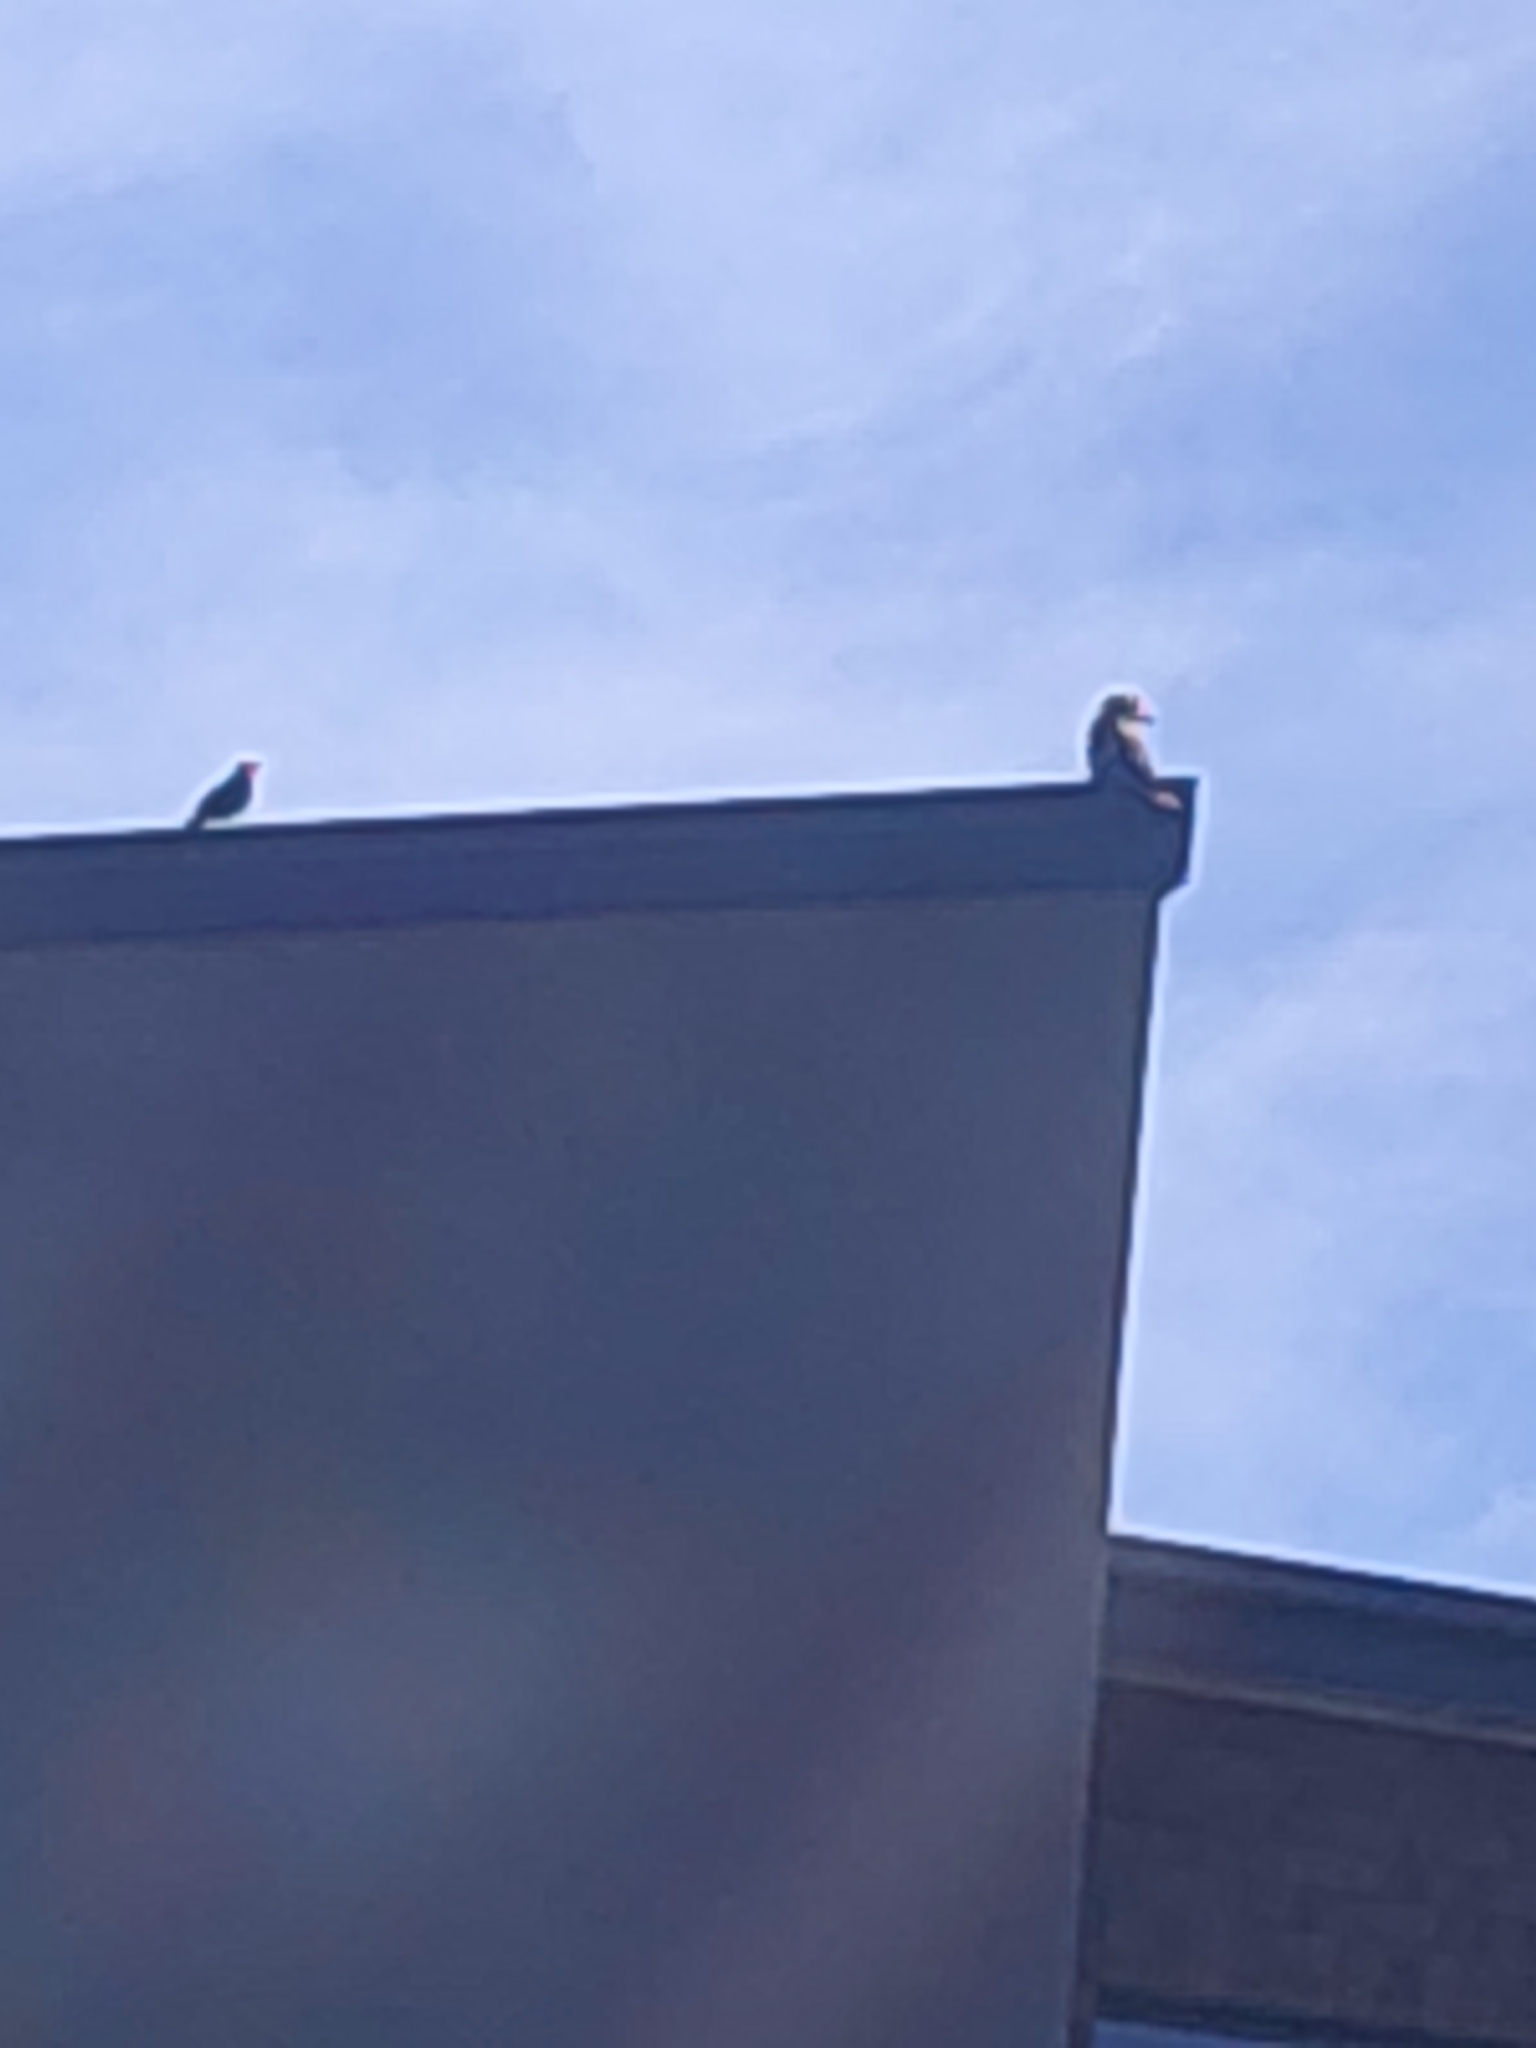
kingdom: Animalia
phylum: Chordata
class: Aves
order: Coraciiformes
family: Alcedinidae
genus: Dacelo
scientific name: Dacelo novaeguineae
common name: Laughing kookaburra
